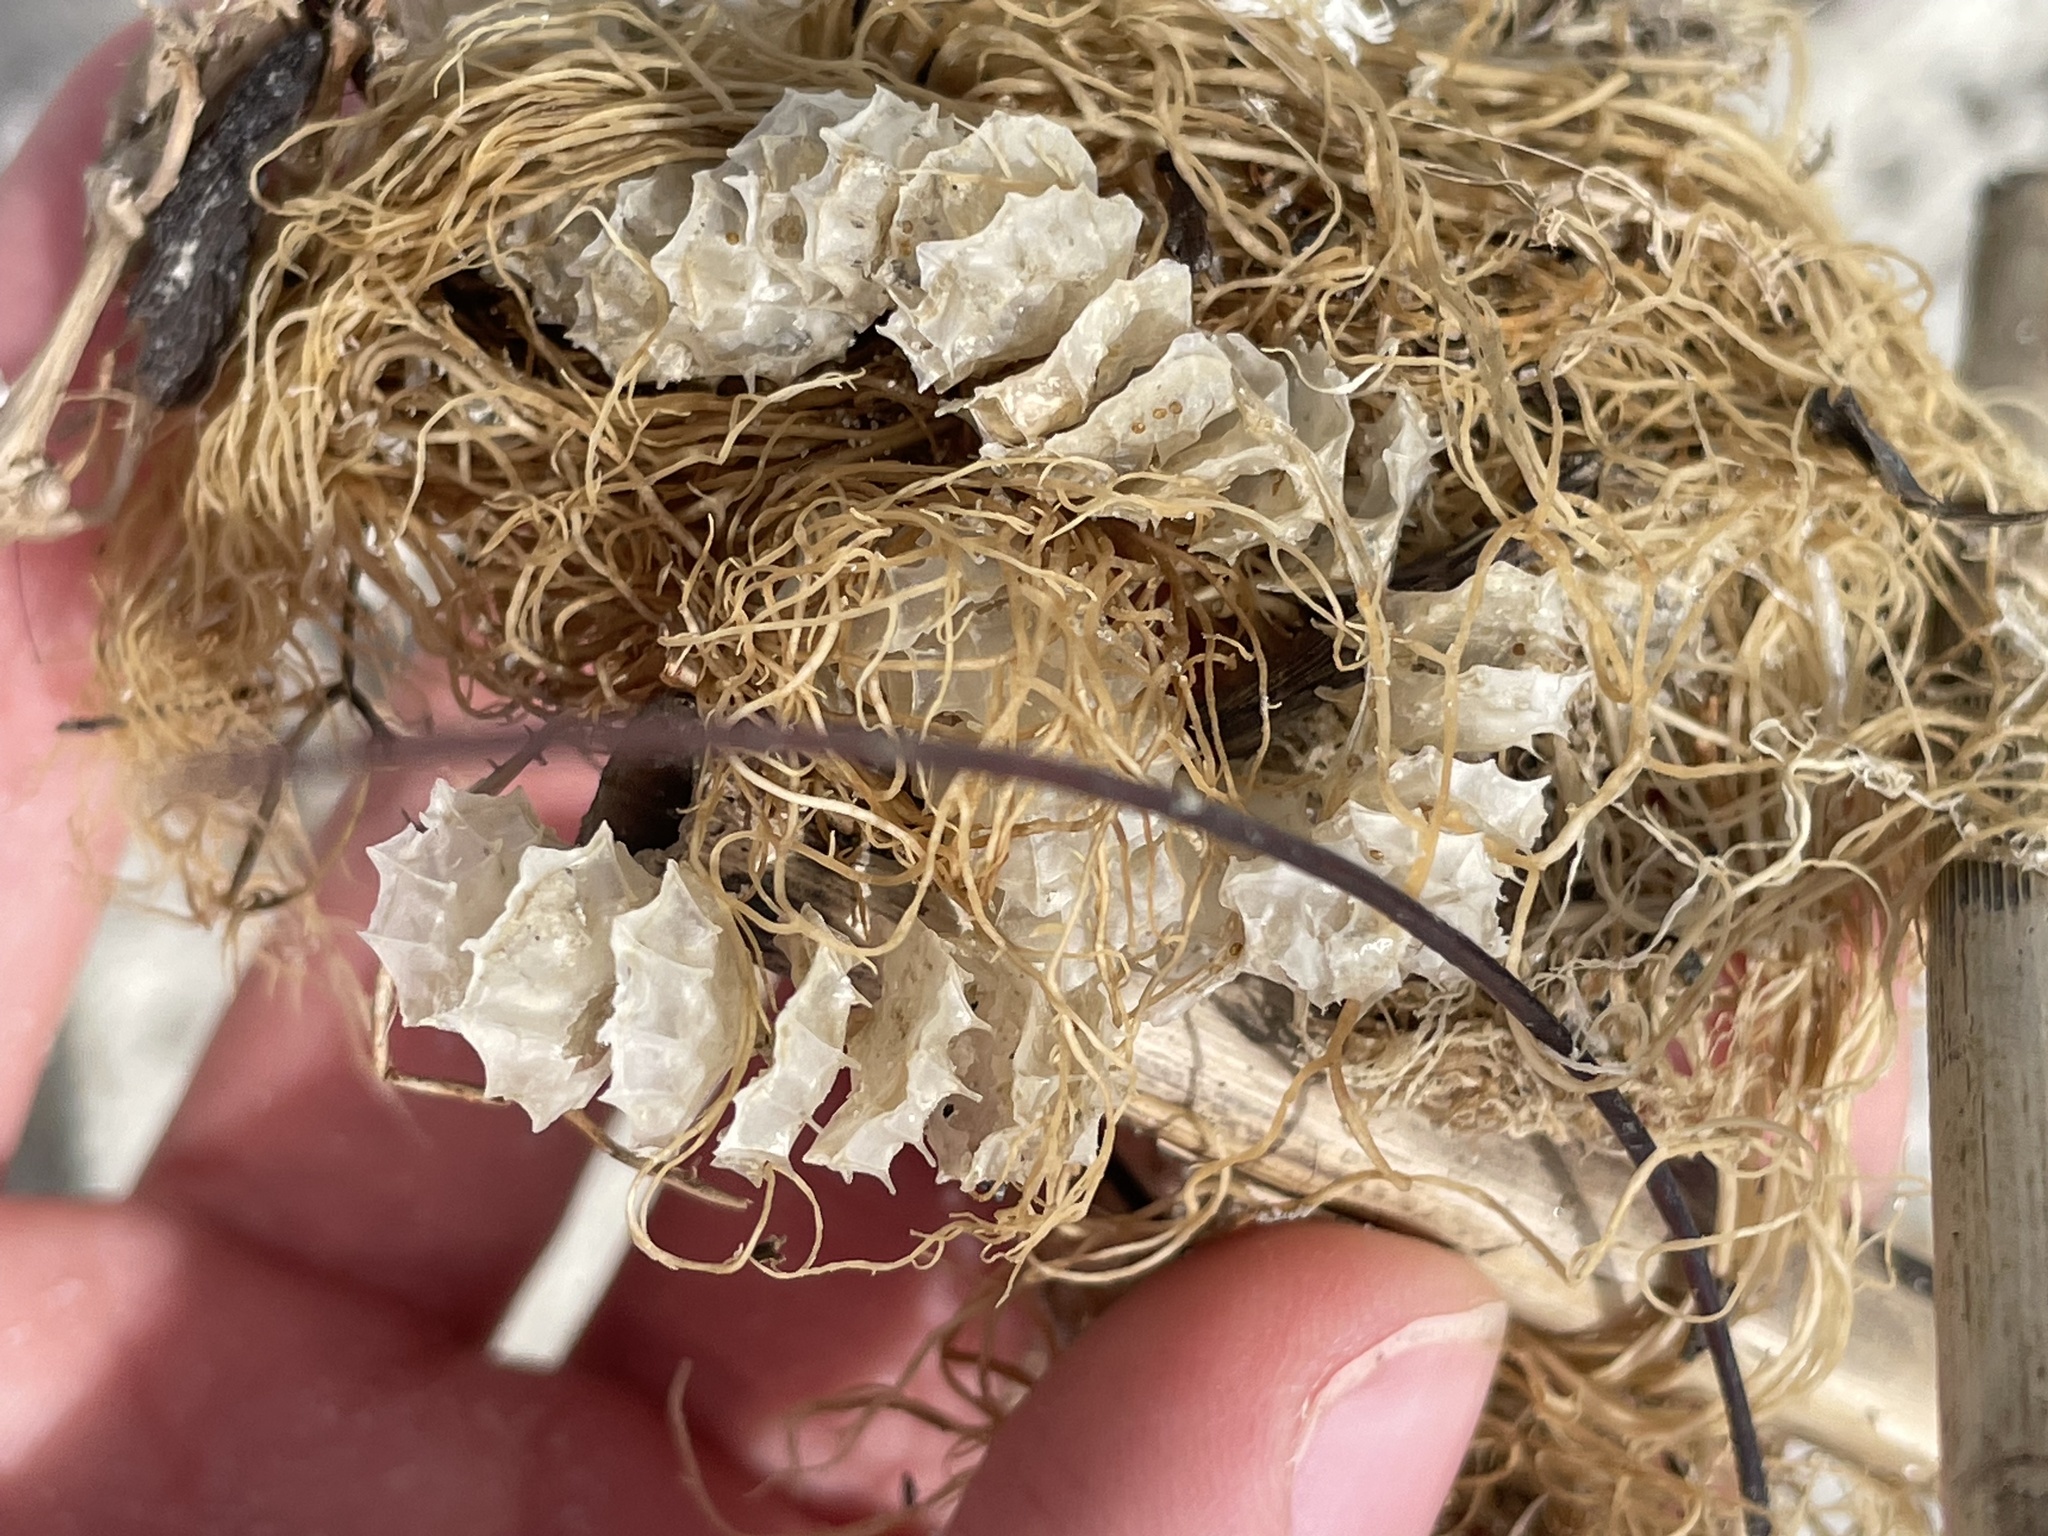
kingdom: Animalia
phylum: Mollusca
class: Gastropoda
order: Neogastropoda
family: Busyconidae
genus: Sinistrofulgur
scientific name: Sinistrofulgur sinistrum
